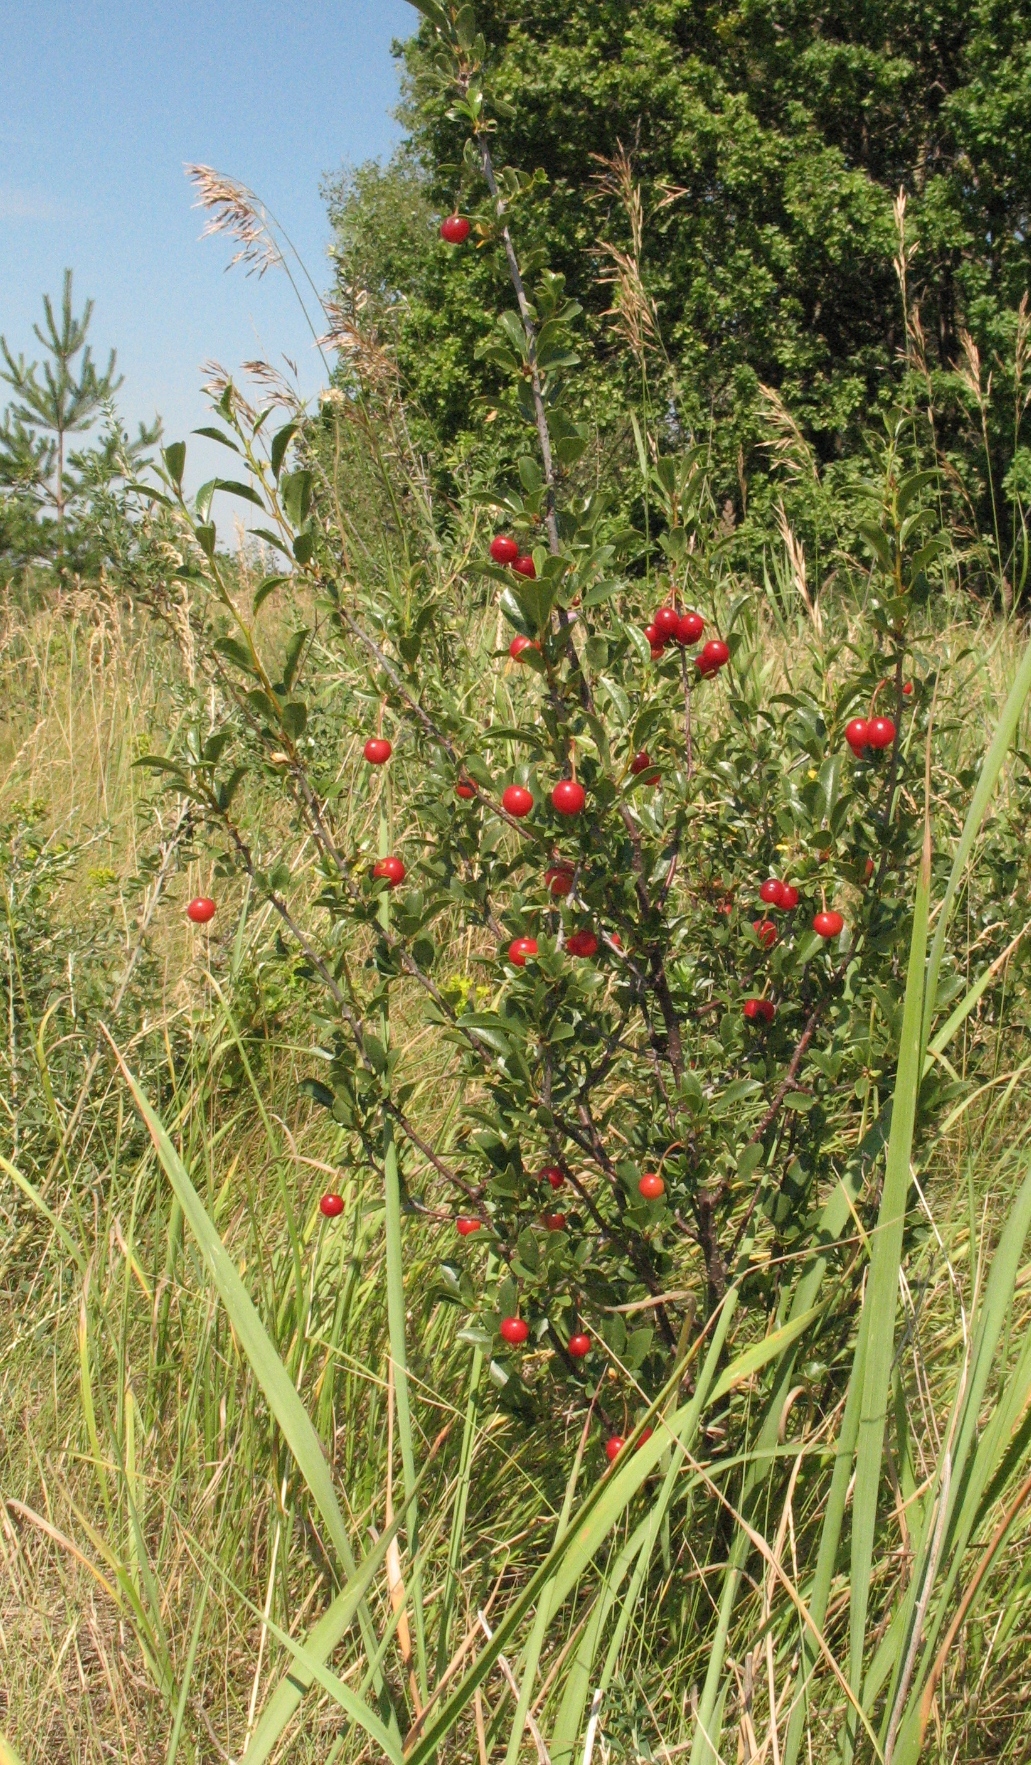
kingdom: Plantae
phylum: Tracheophyta
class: Magnoliopsida
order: Rosales
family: Rosaceae
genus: Prunus
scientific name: Prunus fruticosa
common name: European dwarf cherry
